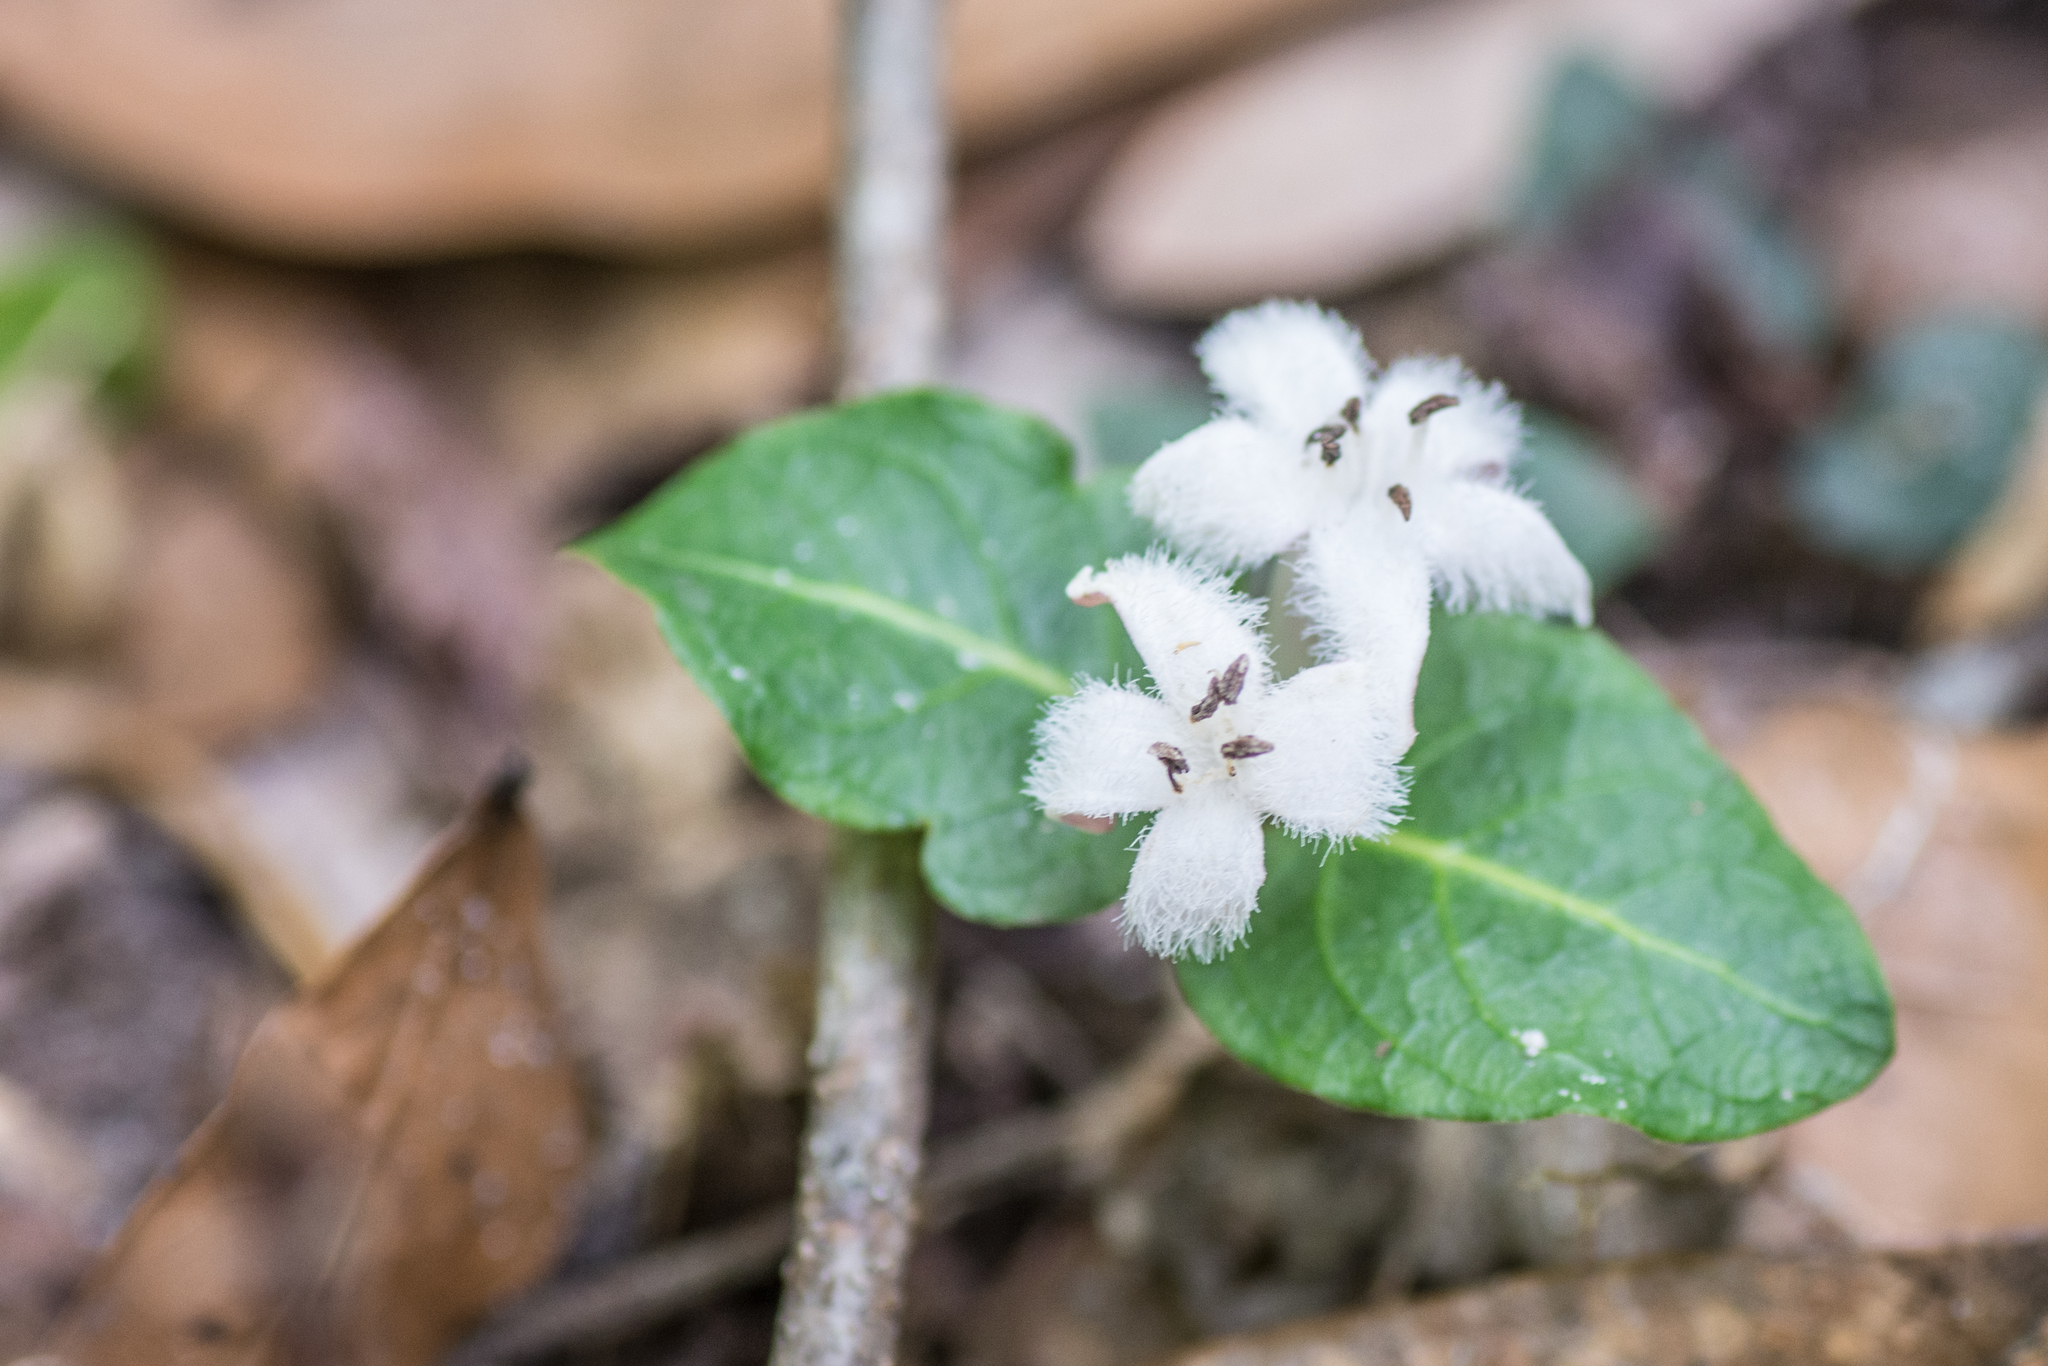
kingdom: Plantae
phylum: Tracheophyta
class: Magnoliopsida
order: Gentianales
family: Rubiaceae
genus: Mitchella
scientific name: Mitchella repens
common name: Partridge-berry
